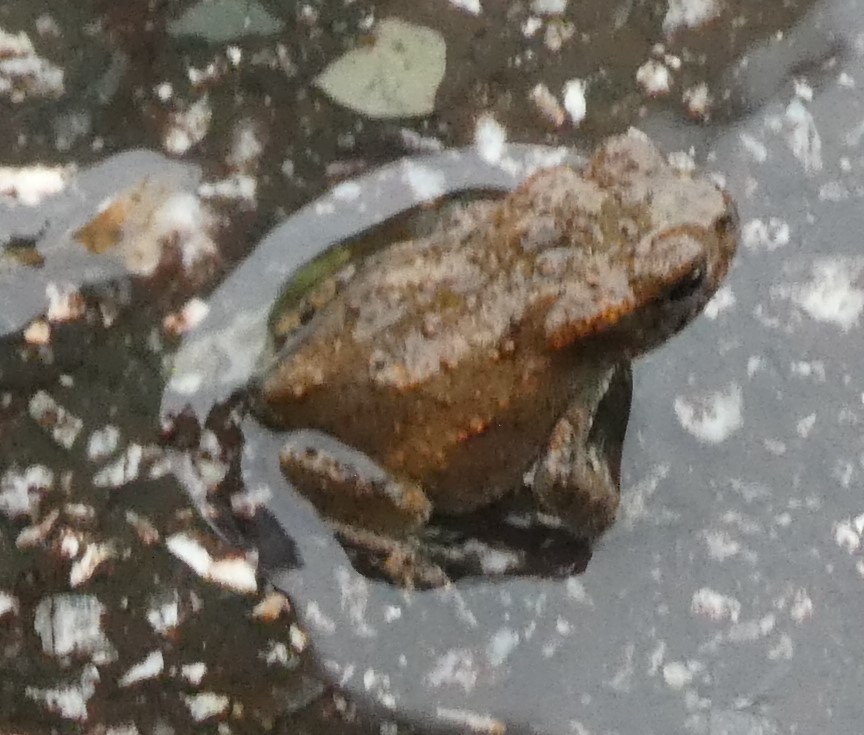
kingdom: Animalia
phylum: Chordata
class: Amphibia
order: Anura
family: Bufonidae
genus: Bufo
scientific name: Bufo bufo
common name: Common toad
